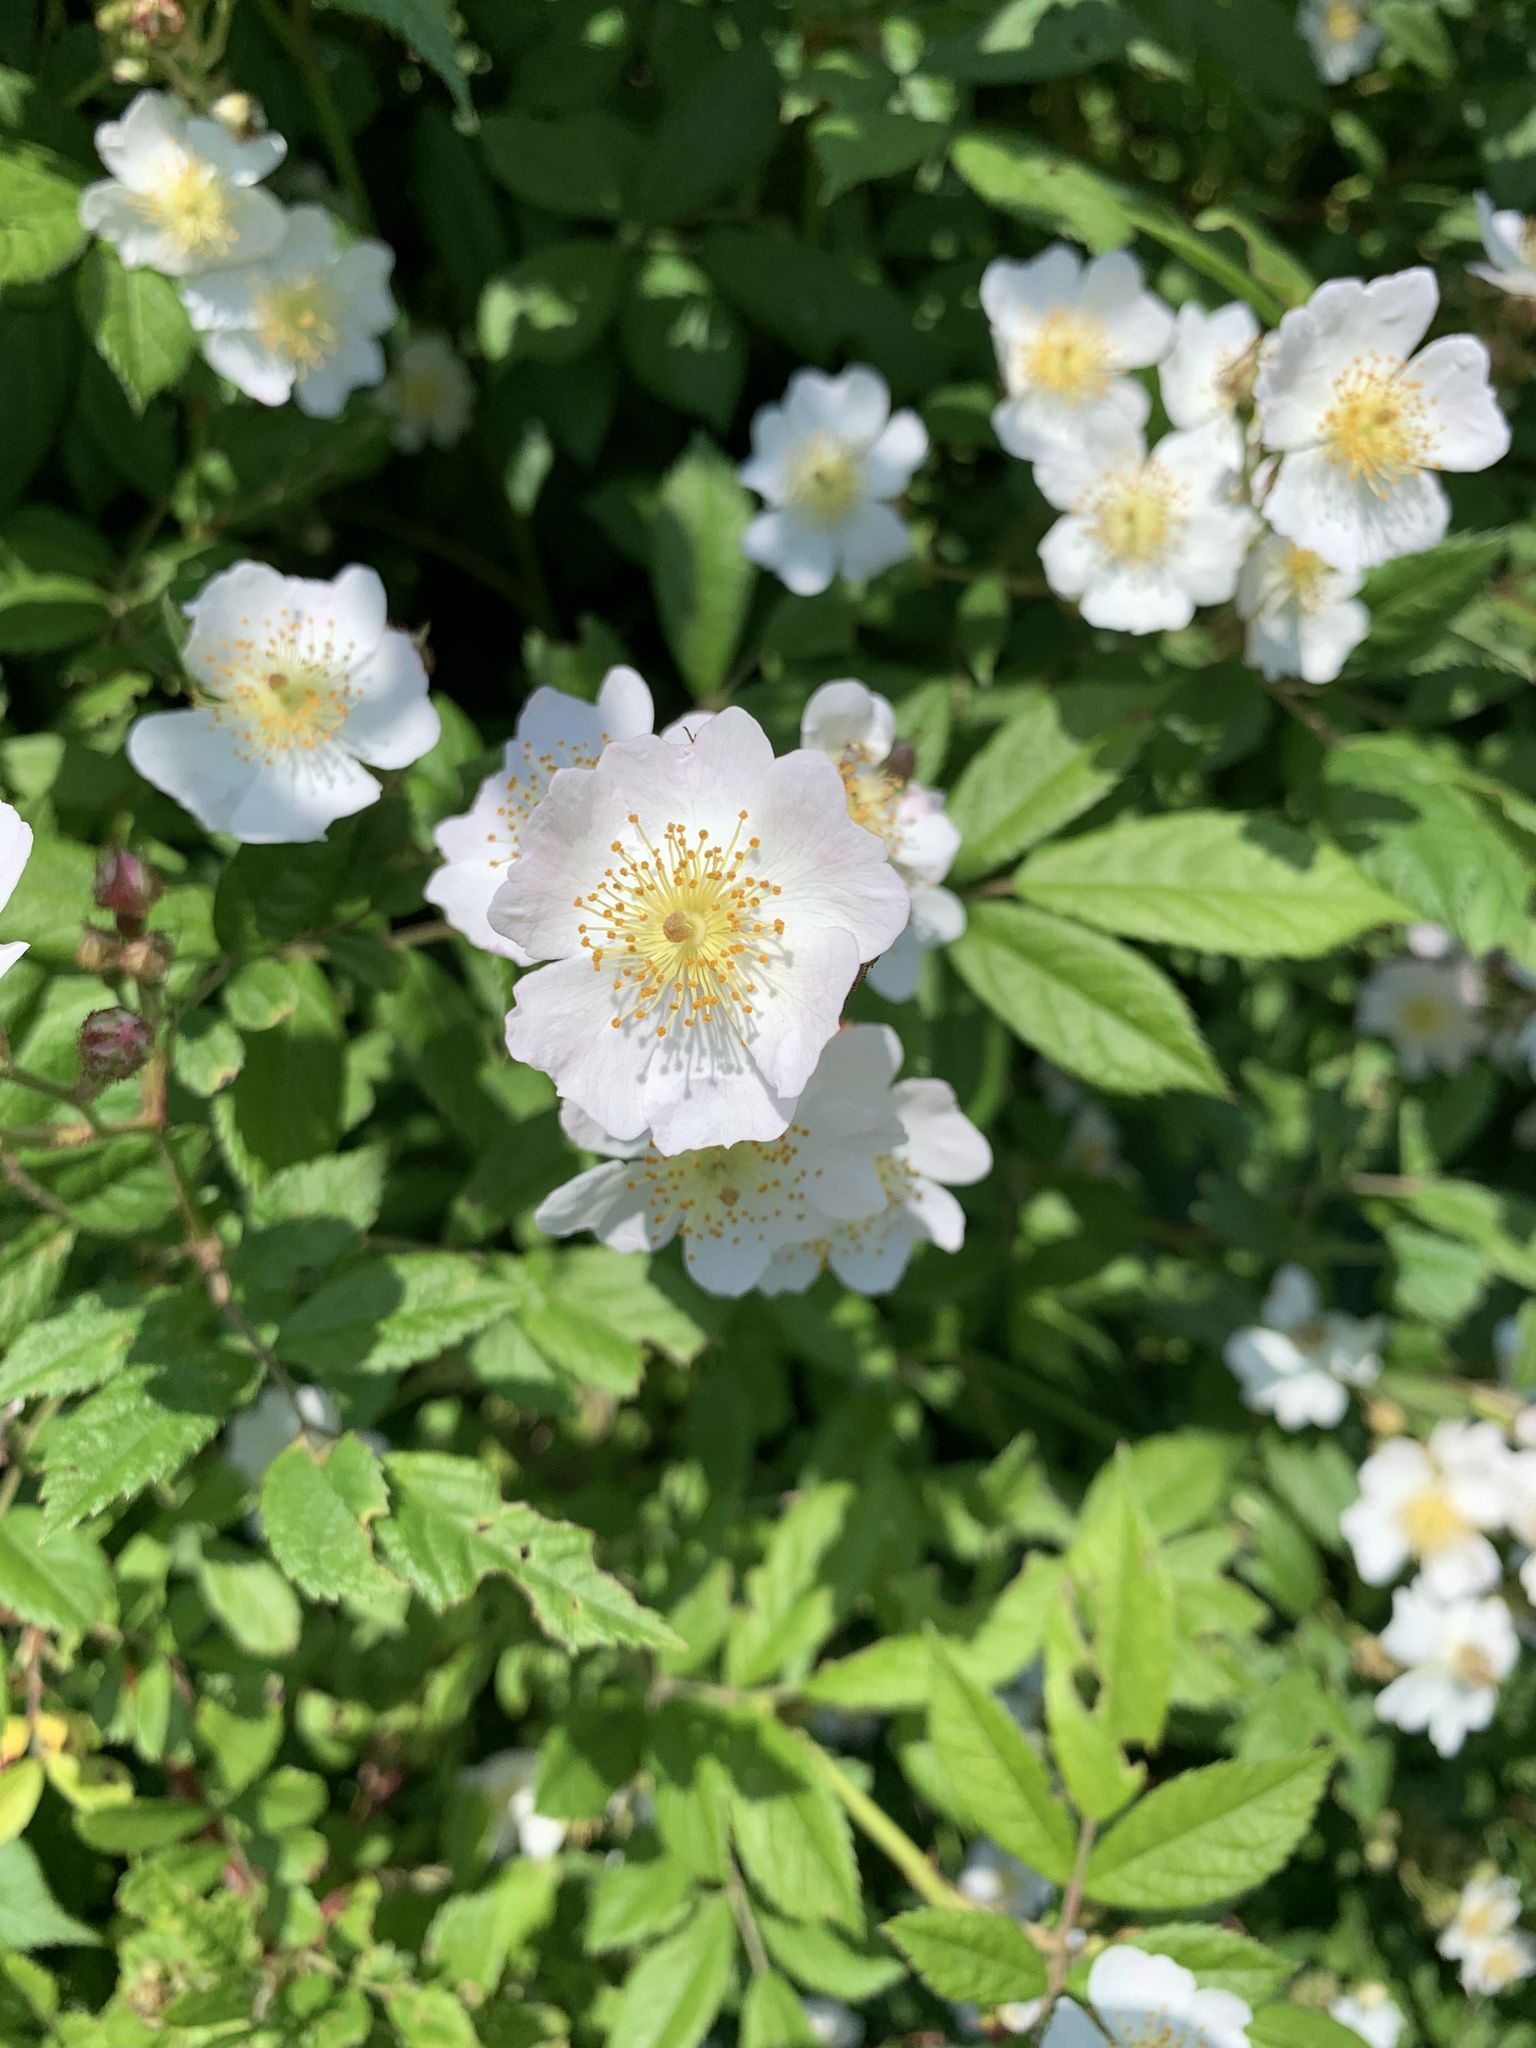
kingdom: Plantae
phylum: Tracheophyta
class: Magnoliopsida
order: Rosales
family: Rosaceae
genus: Rosa
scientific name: Rosa multiflora
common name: Multiflora rose
